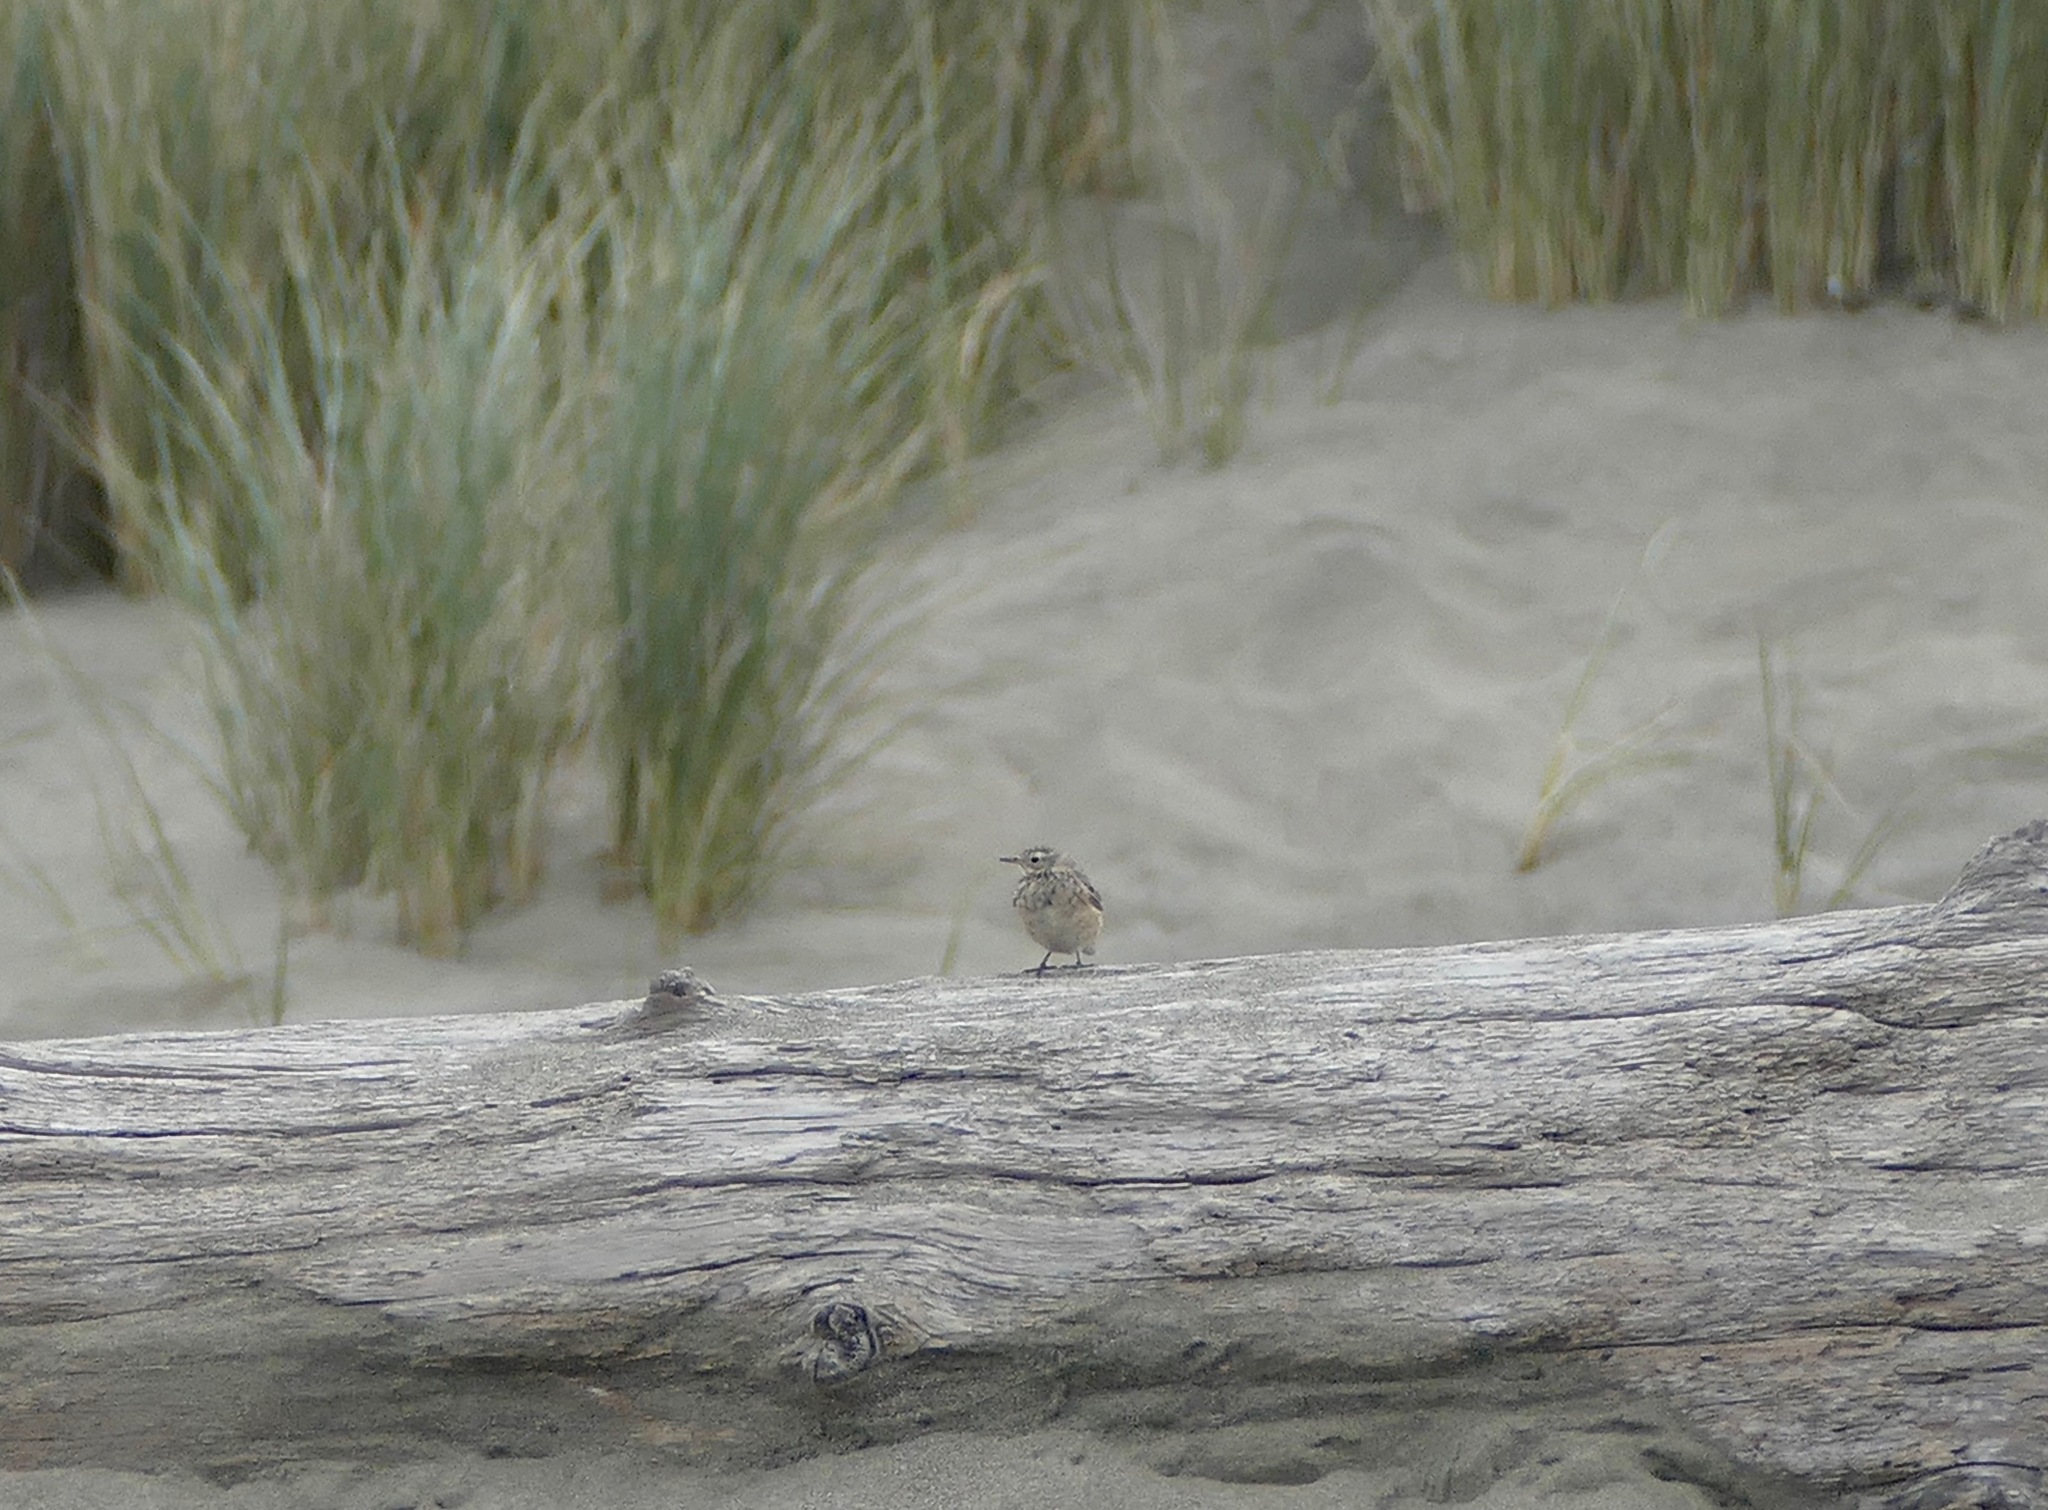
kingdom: Animalia
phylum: Chordata
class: Aves
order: Passeriformes
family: Motacillidae
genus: Anthus
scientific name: Anthus rubescens
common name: Buff-bellied pipit
